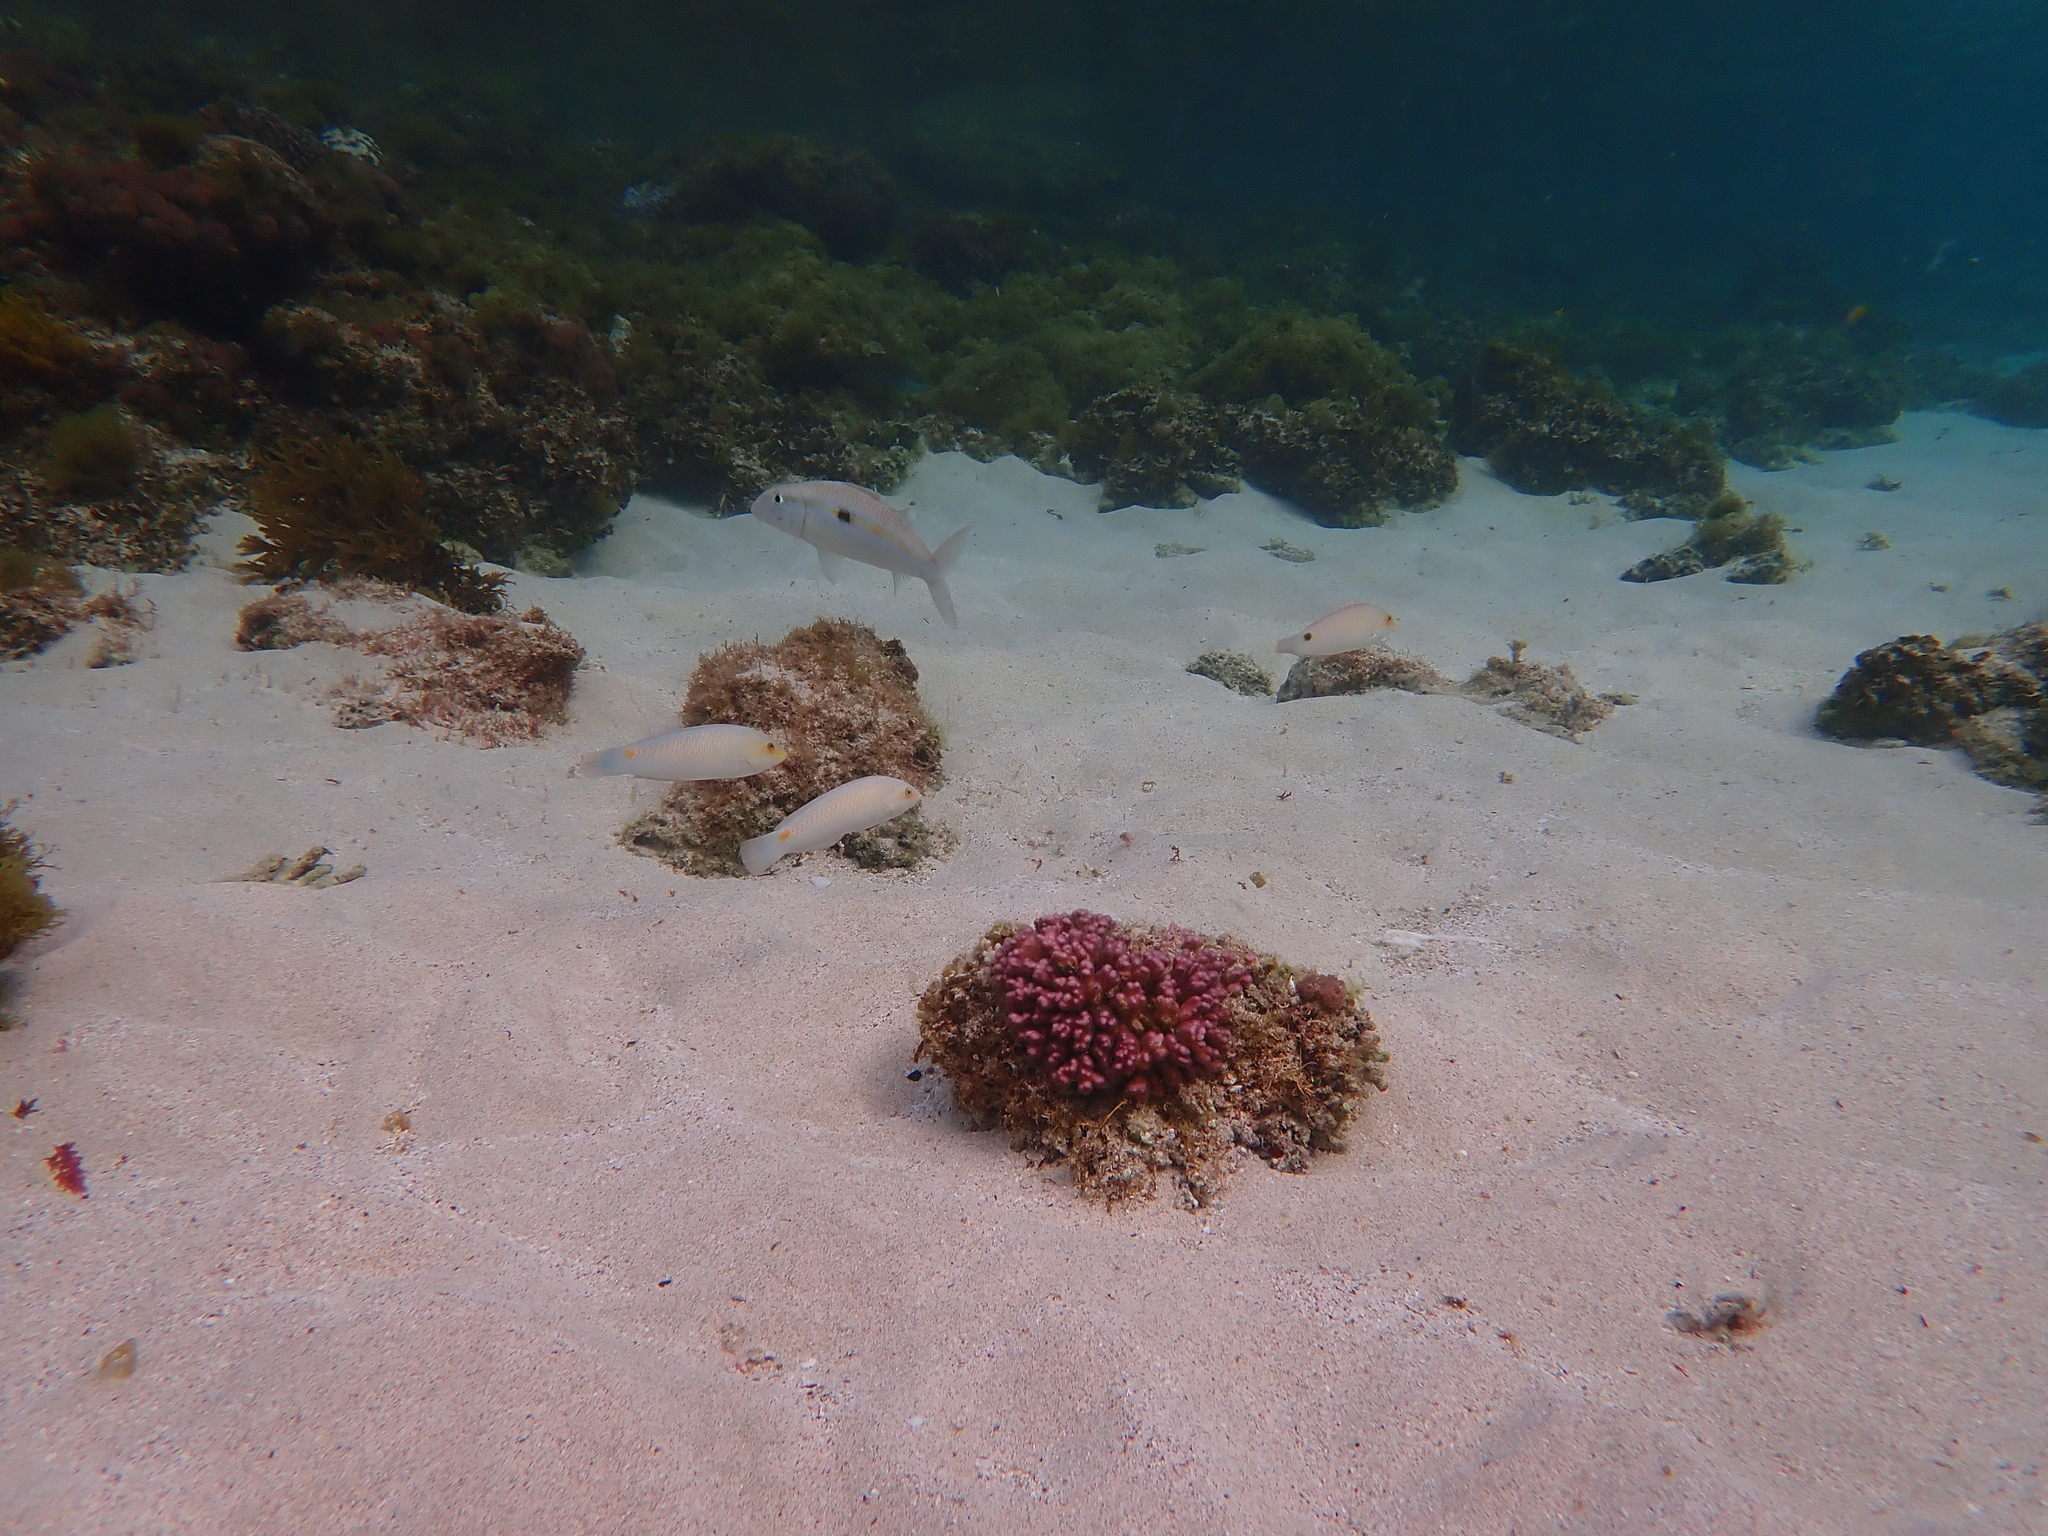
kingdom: Animalia
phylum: Chordata
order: Perciformes
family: Labridae
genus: Halichoeres
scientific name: Halichoeres trimaculatus
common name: Three-spot wrasse
